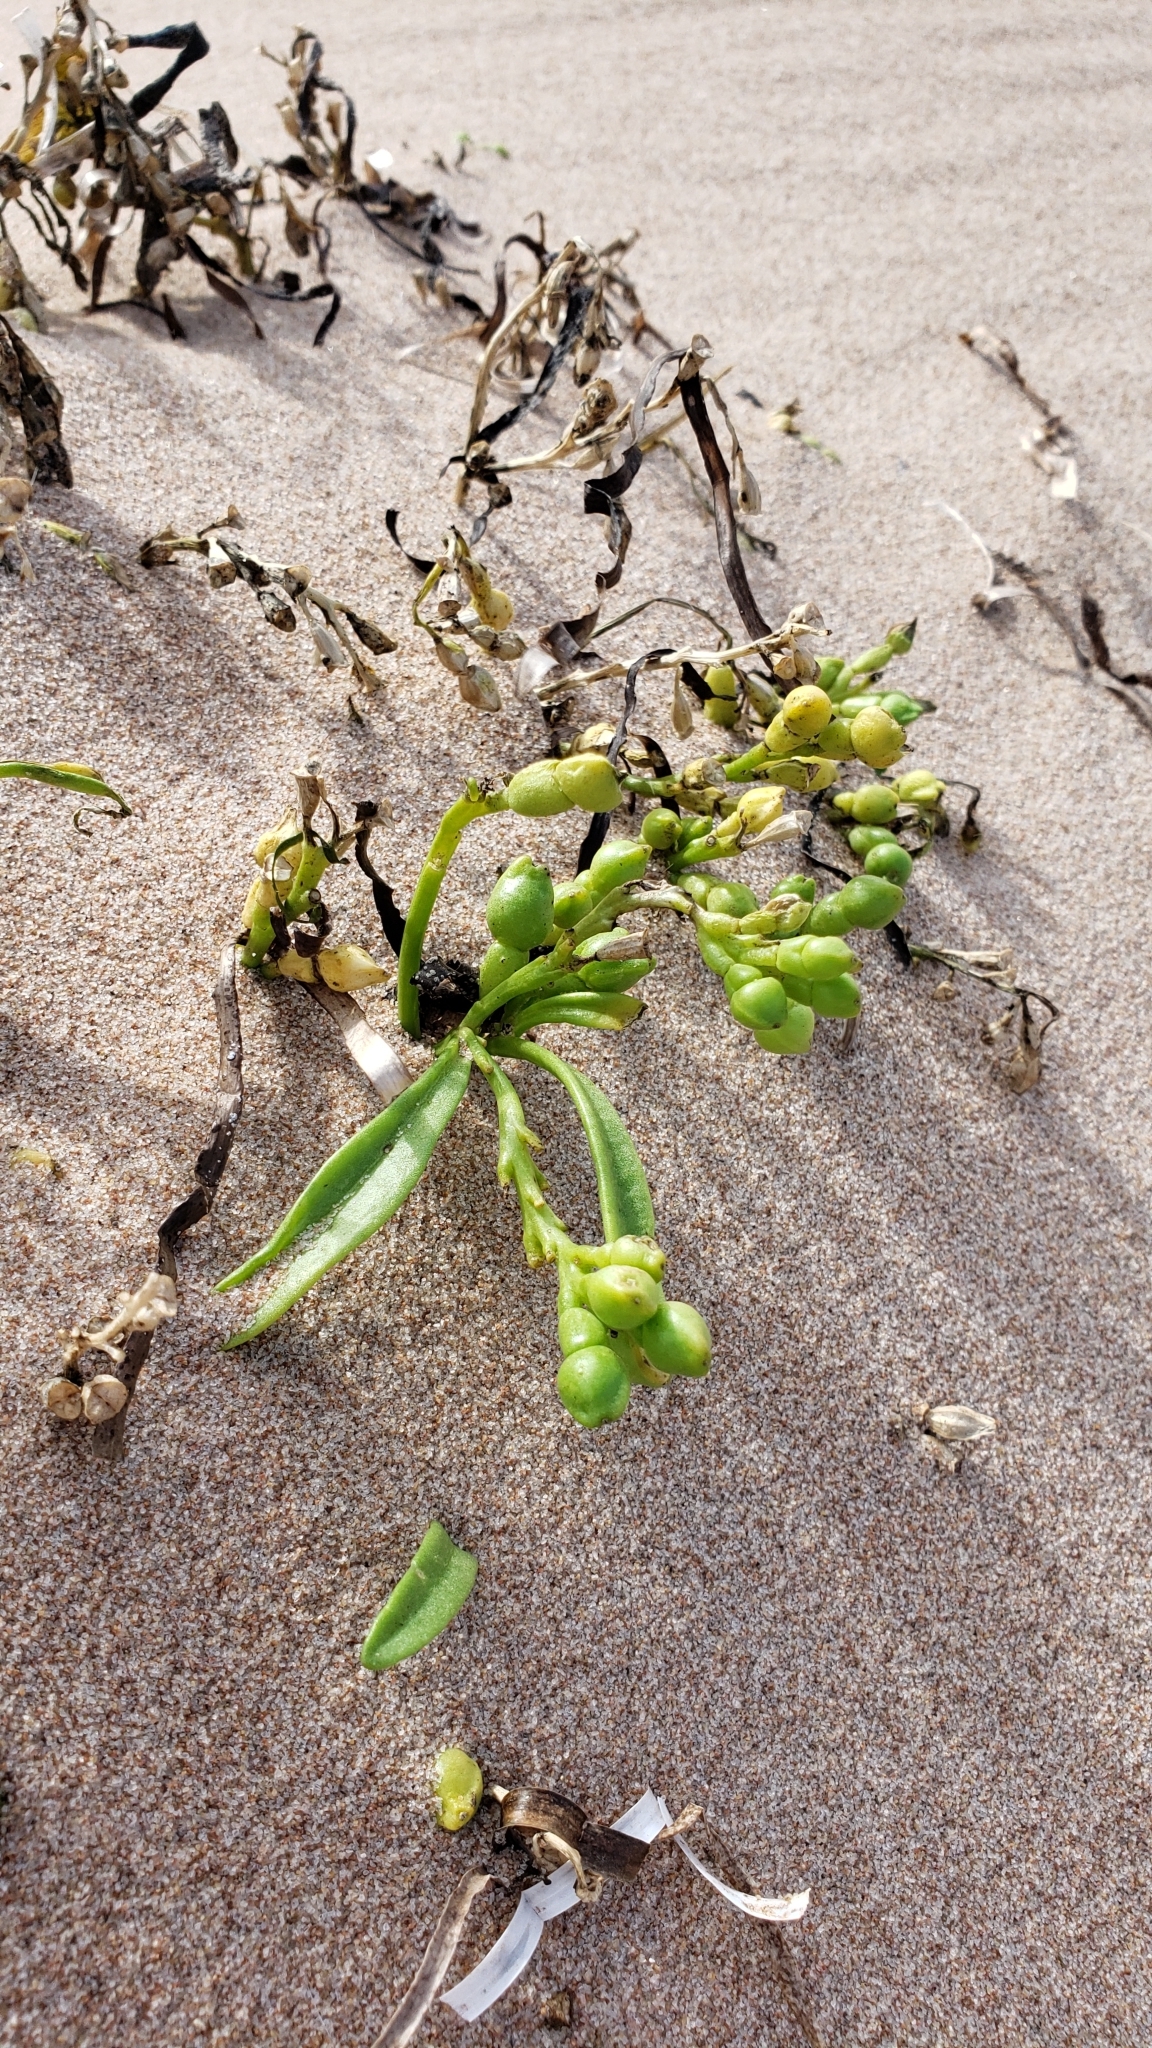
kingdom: Plantae
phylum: Tracheophyta
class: Magnoliopsida
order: Brassicales
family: Brassicaceae
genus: Cakile
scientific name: Cakile edentula
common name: American sea rocket
